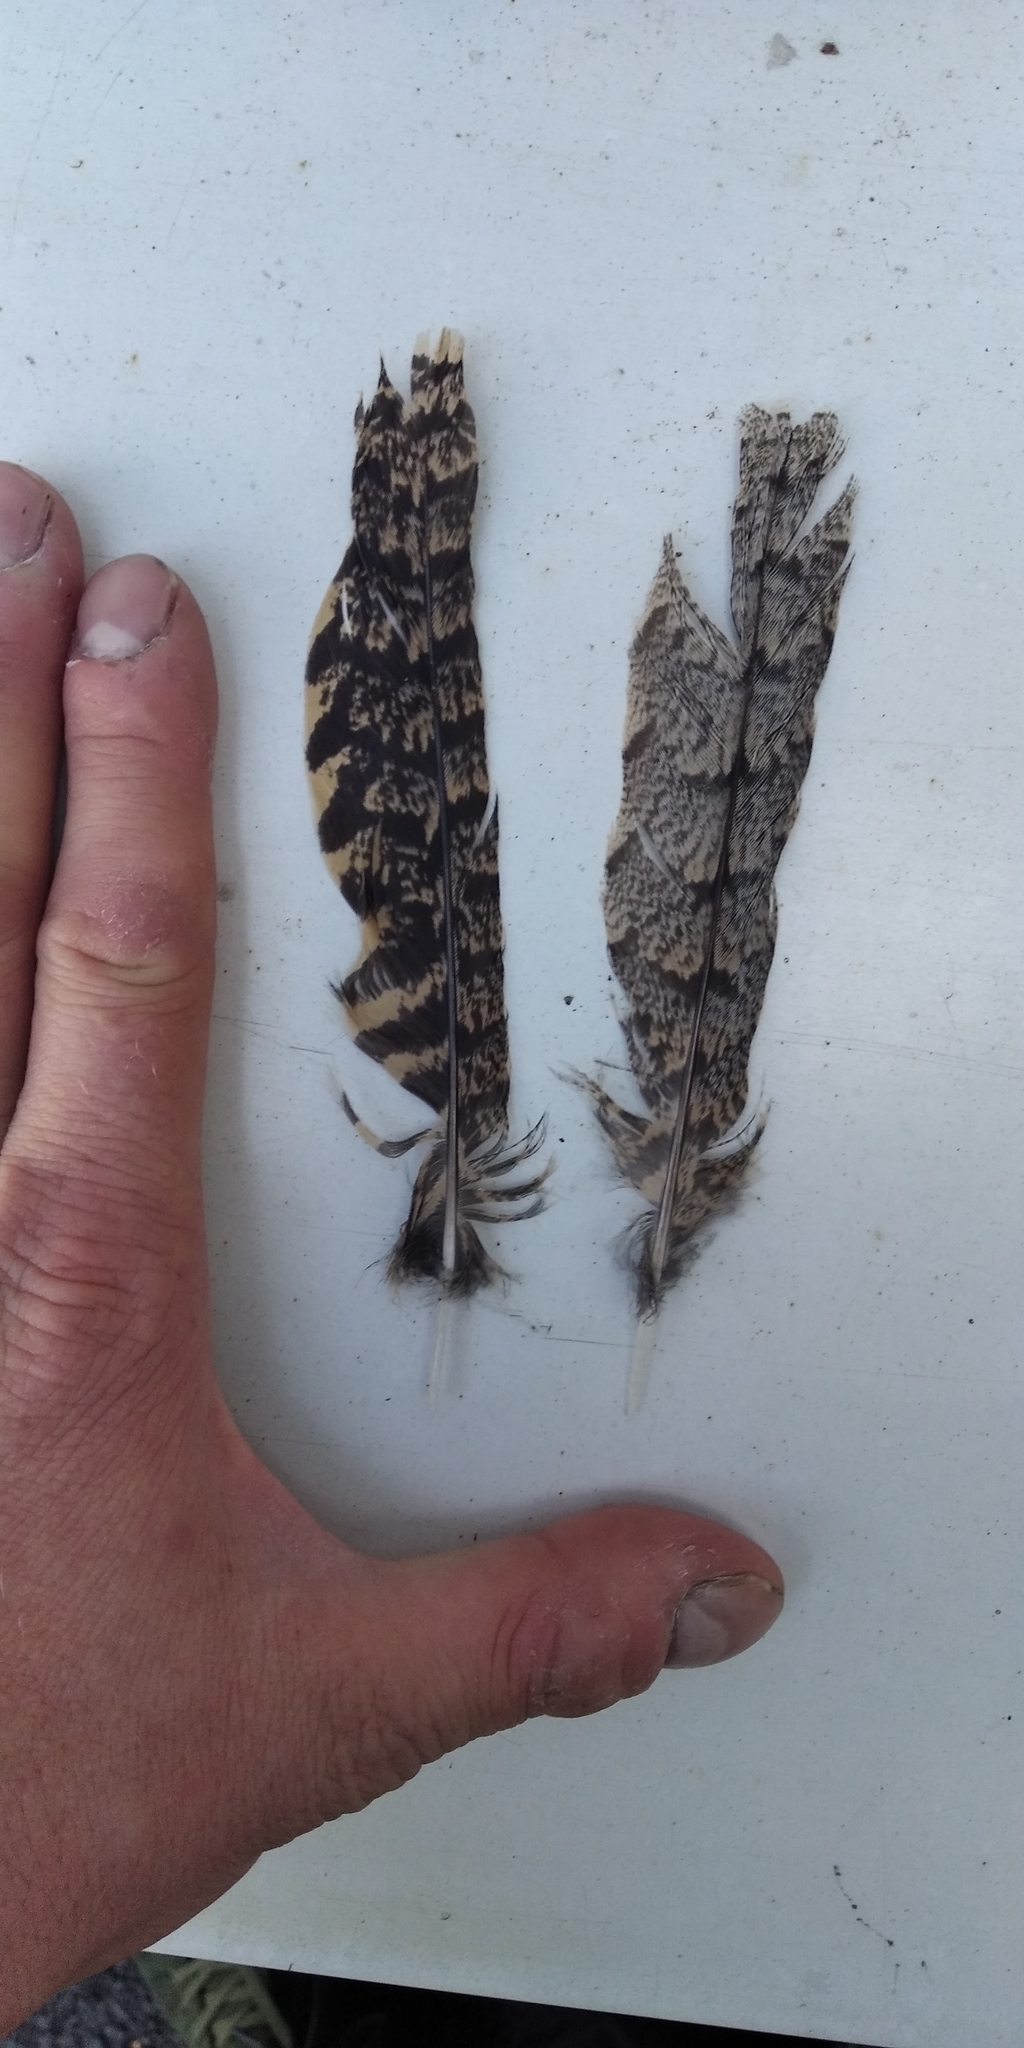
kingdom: Animalia
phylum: Chordata
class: Aves
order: Caprimulgiformes
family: Caprimulgidae
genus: Caprimulgus
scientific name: Caprimulgus europaeus
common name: European nightjar
